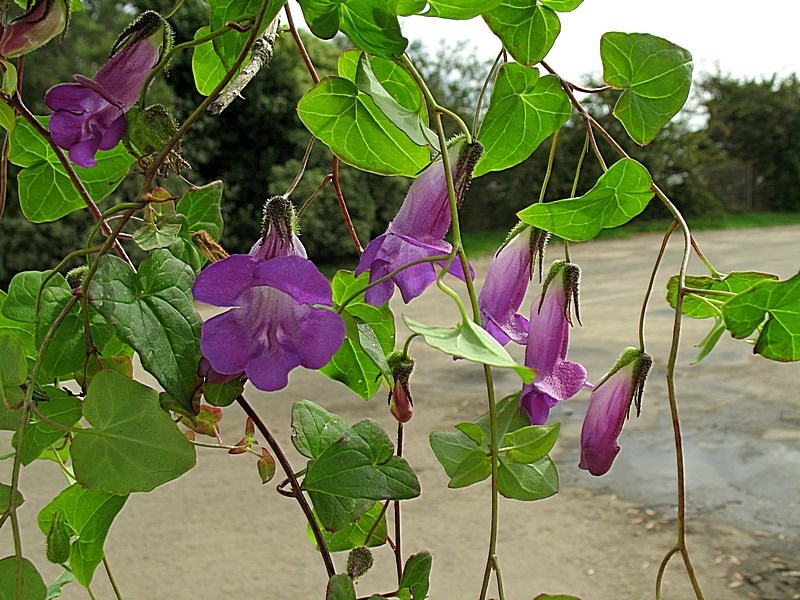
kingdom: Plantae
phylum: Tracheophyta
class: Magnoliopsida
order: Lamiales
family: Plantaginaceae
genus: Maurandya
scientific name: Maurandya barclayana
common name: Mexican viper
